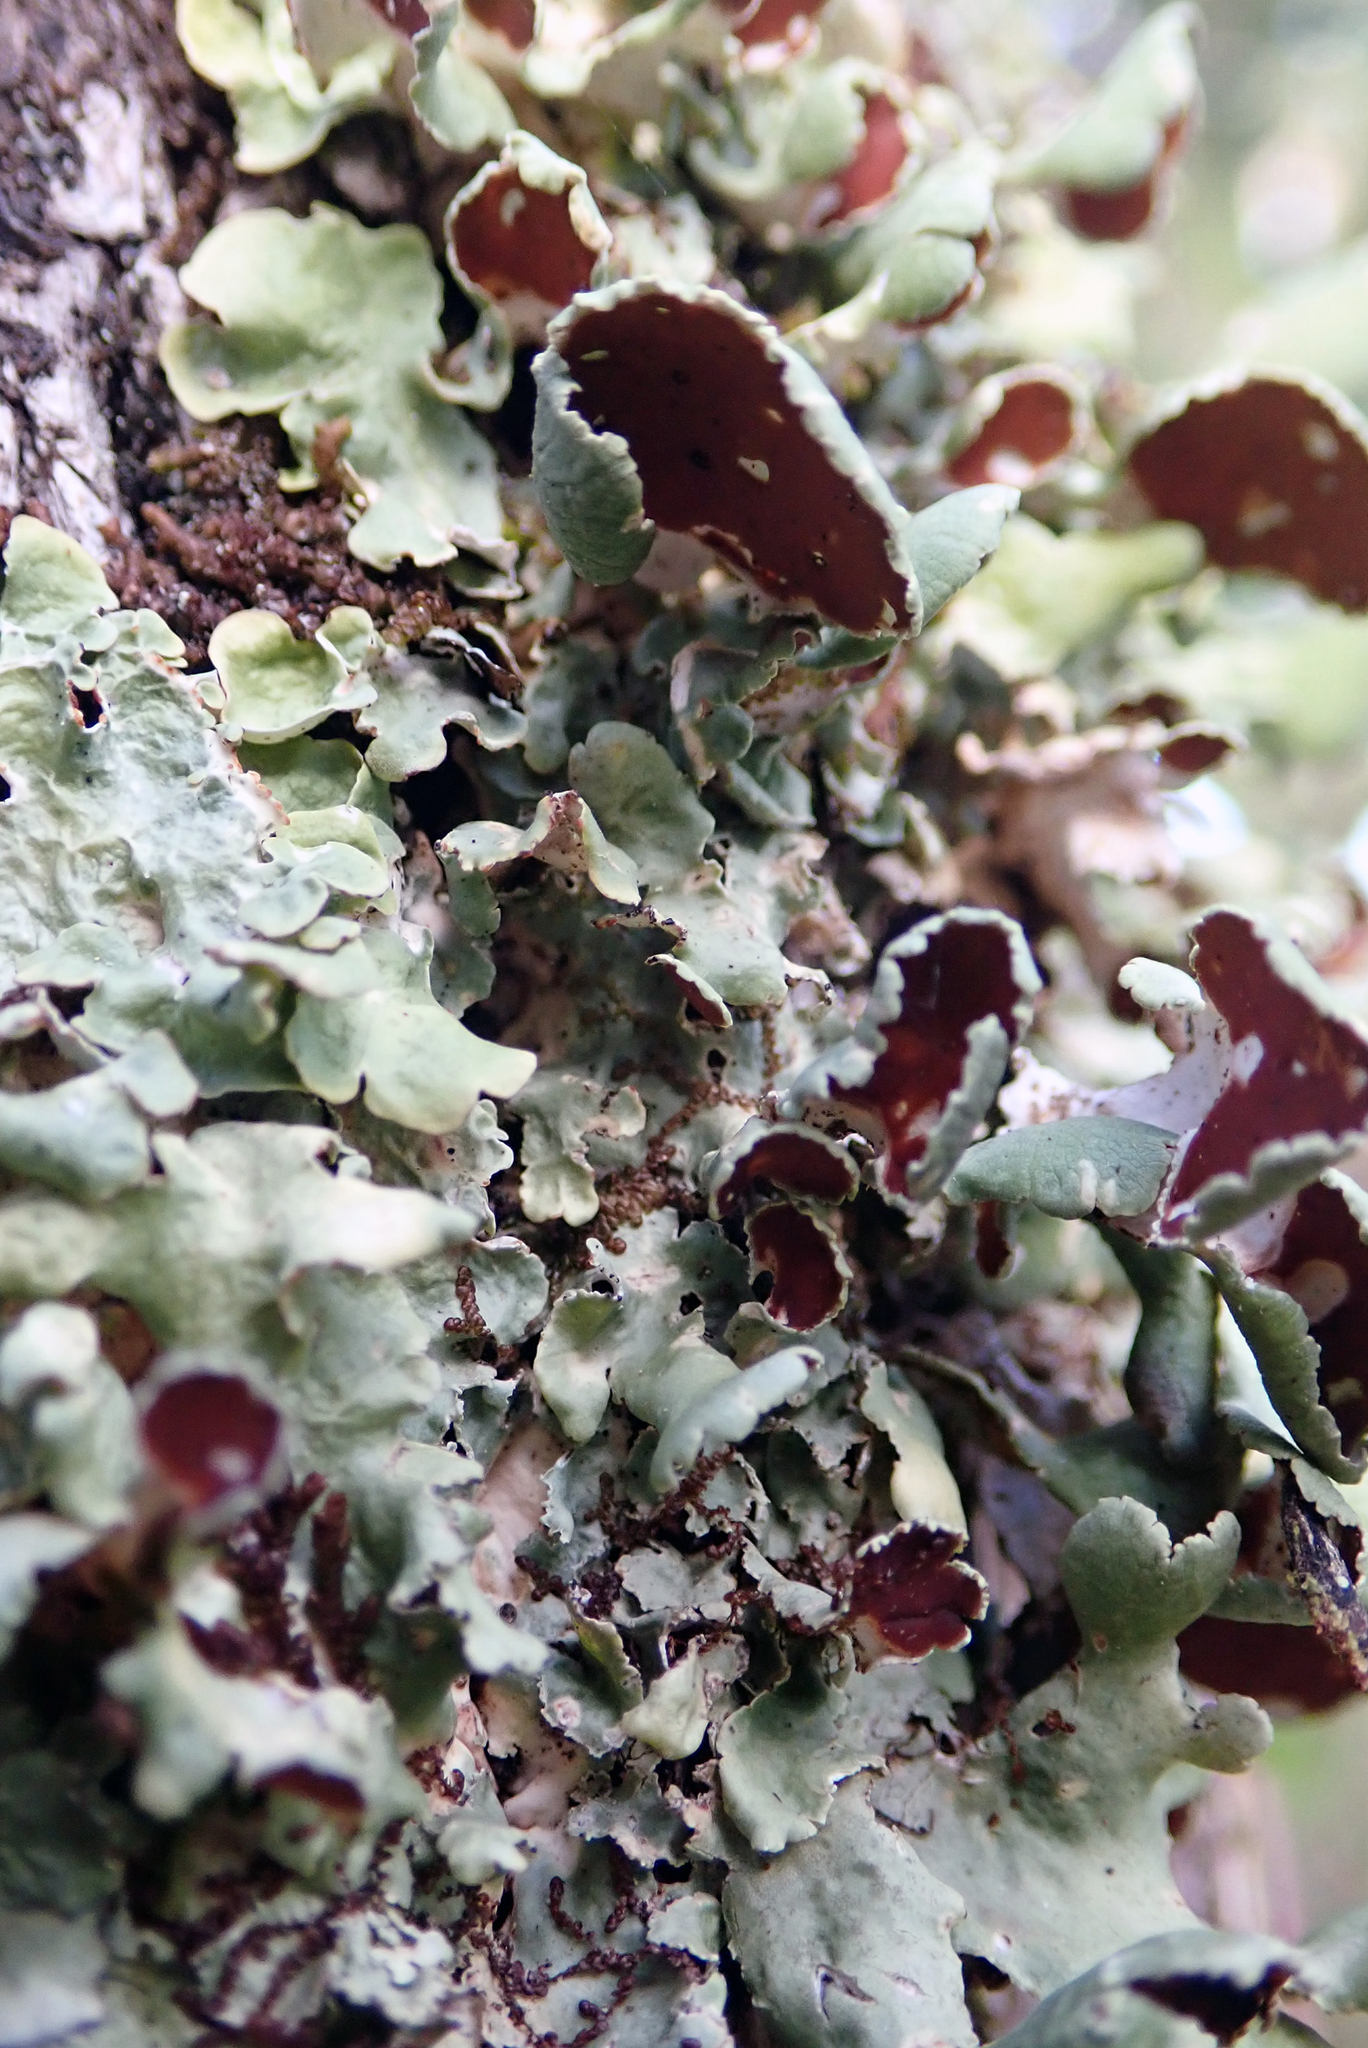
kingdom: Fungi
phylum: Ascomycota
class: Lecanoromycetes
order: Peltigerales
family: Nephromataceae
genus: Nephroma
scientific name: Nephroma australe
